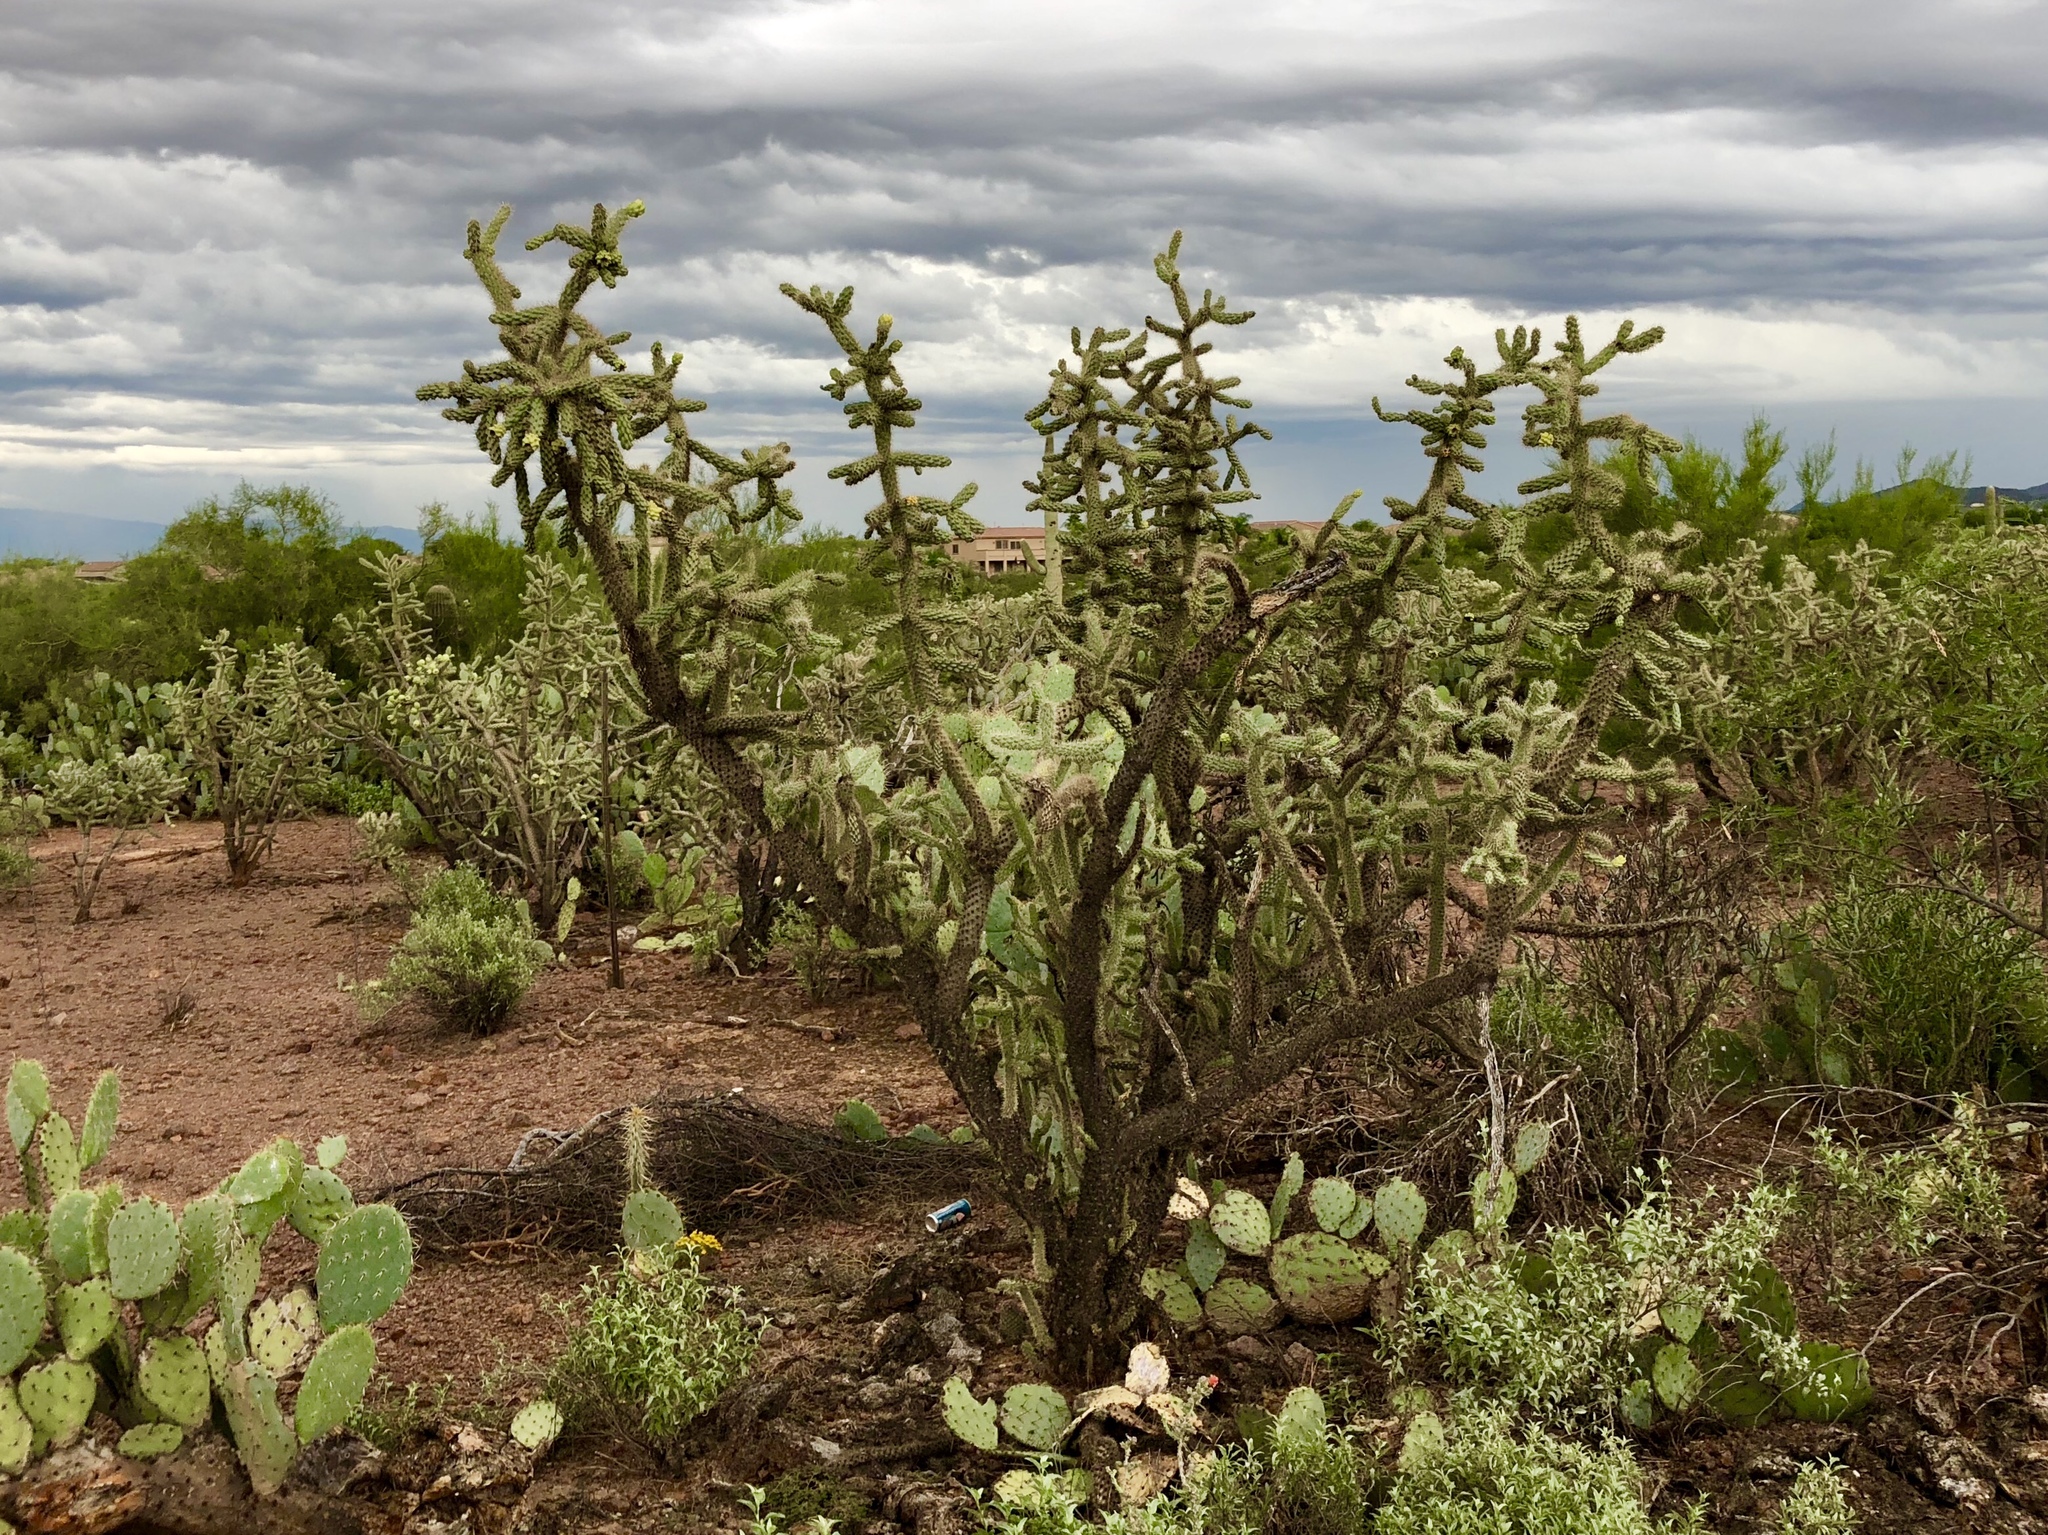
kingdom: Plantae
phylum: Tracheophyta
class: Magnoliopsida
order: Caryophyllales
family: Cactaceae
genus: Cylindropuntia
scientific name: Cylindropuntia fulgida
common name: Jumping cholla
